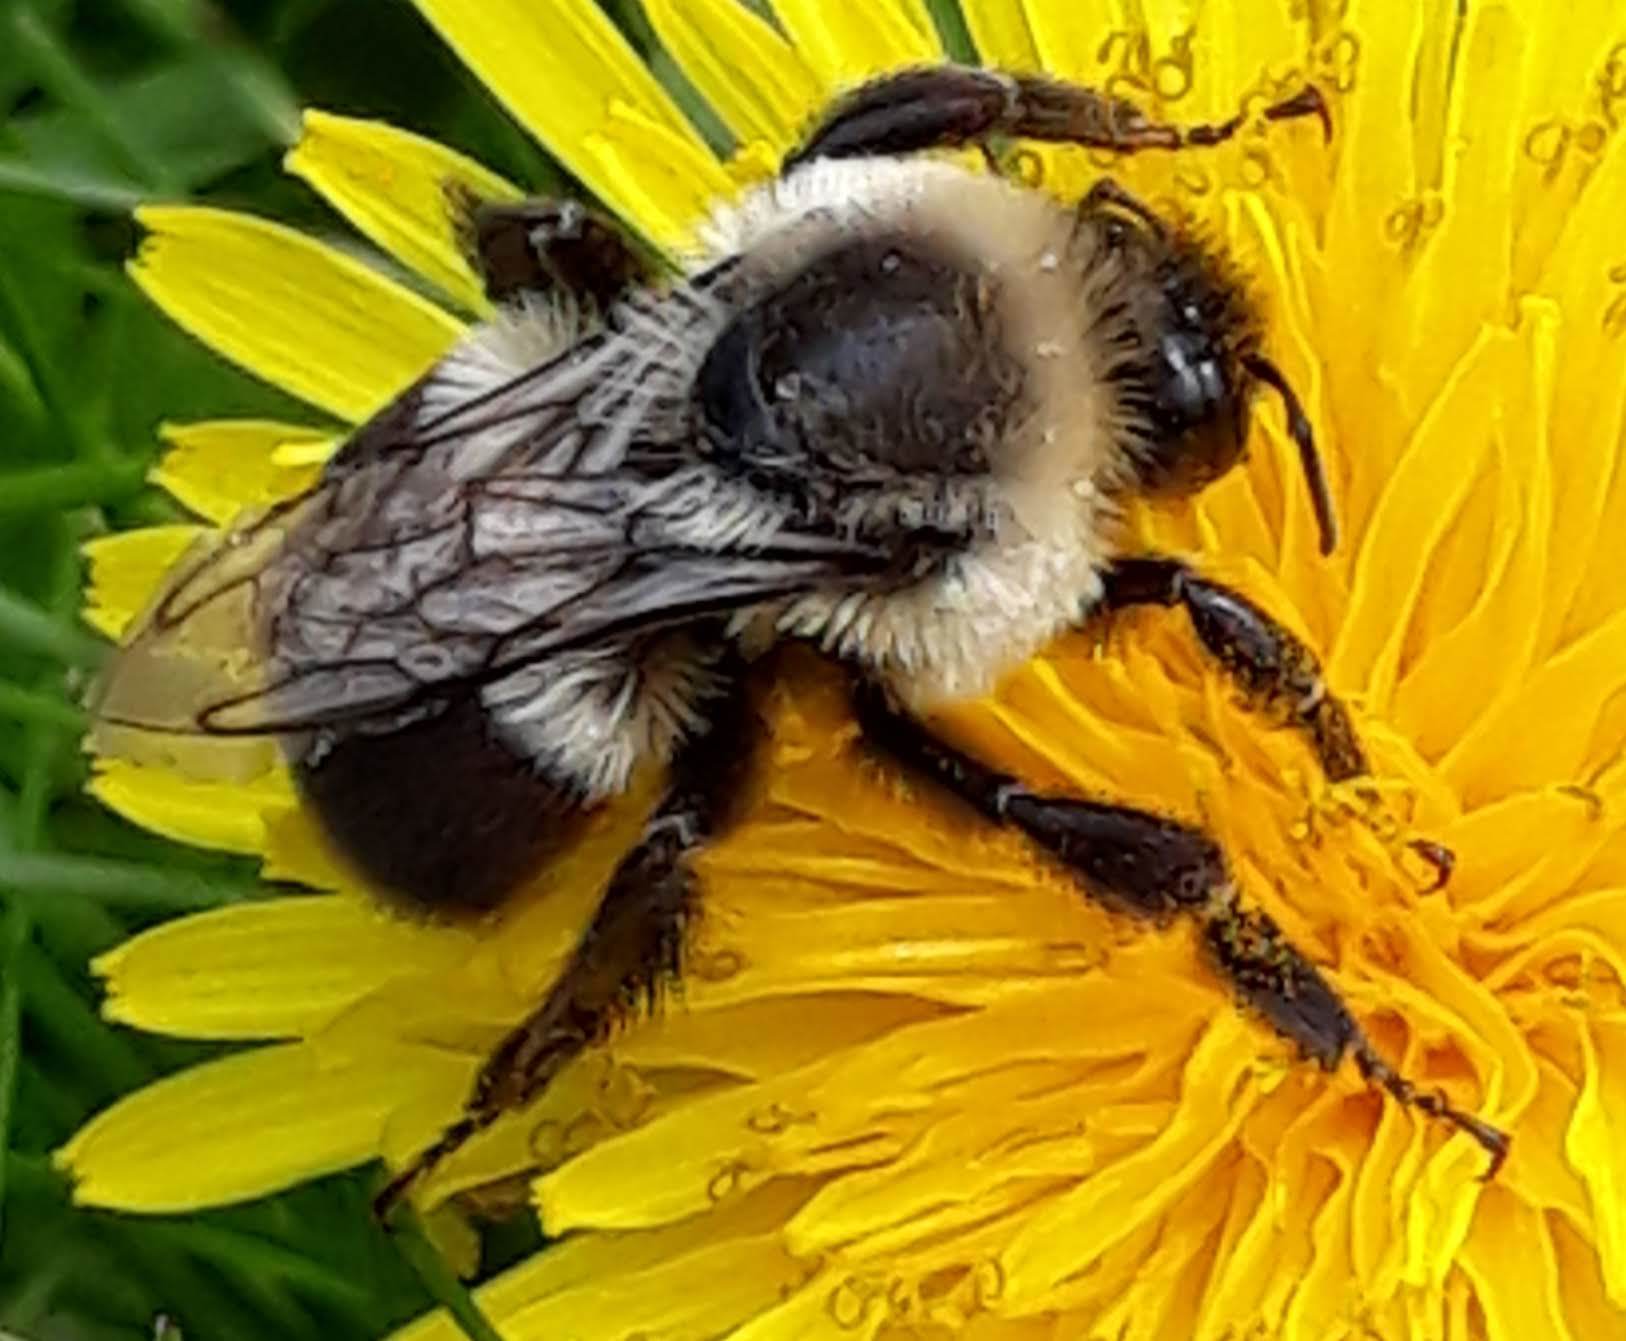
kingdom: Animalia
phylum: Arthropoda
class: Insecta
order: Hymenoptera
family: Apidae
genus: Bombus
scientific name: Bombus impatiens
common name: Common eastern bumble bee
